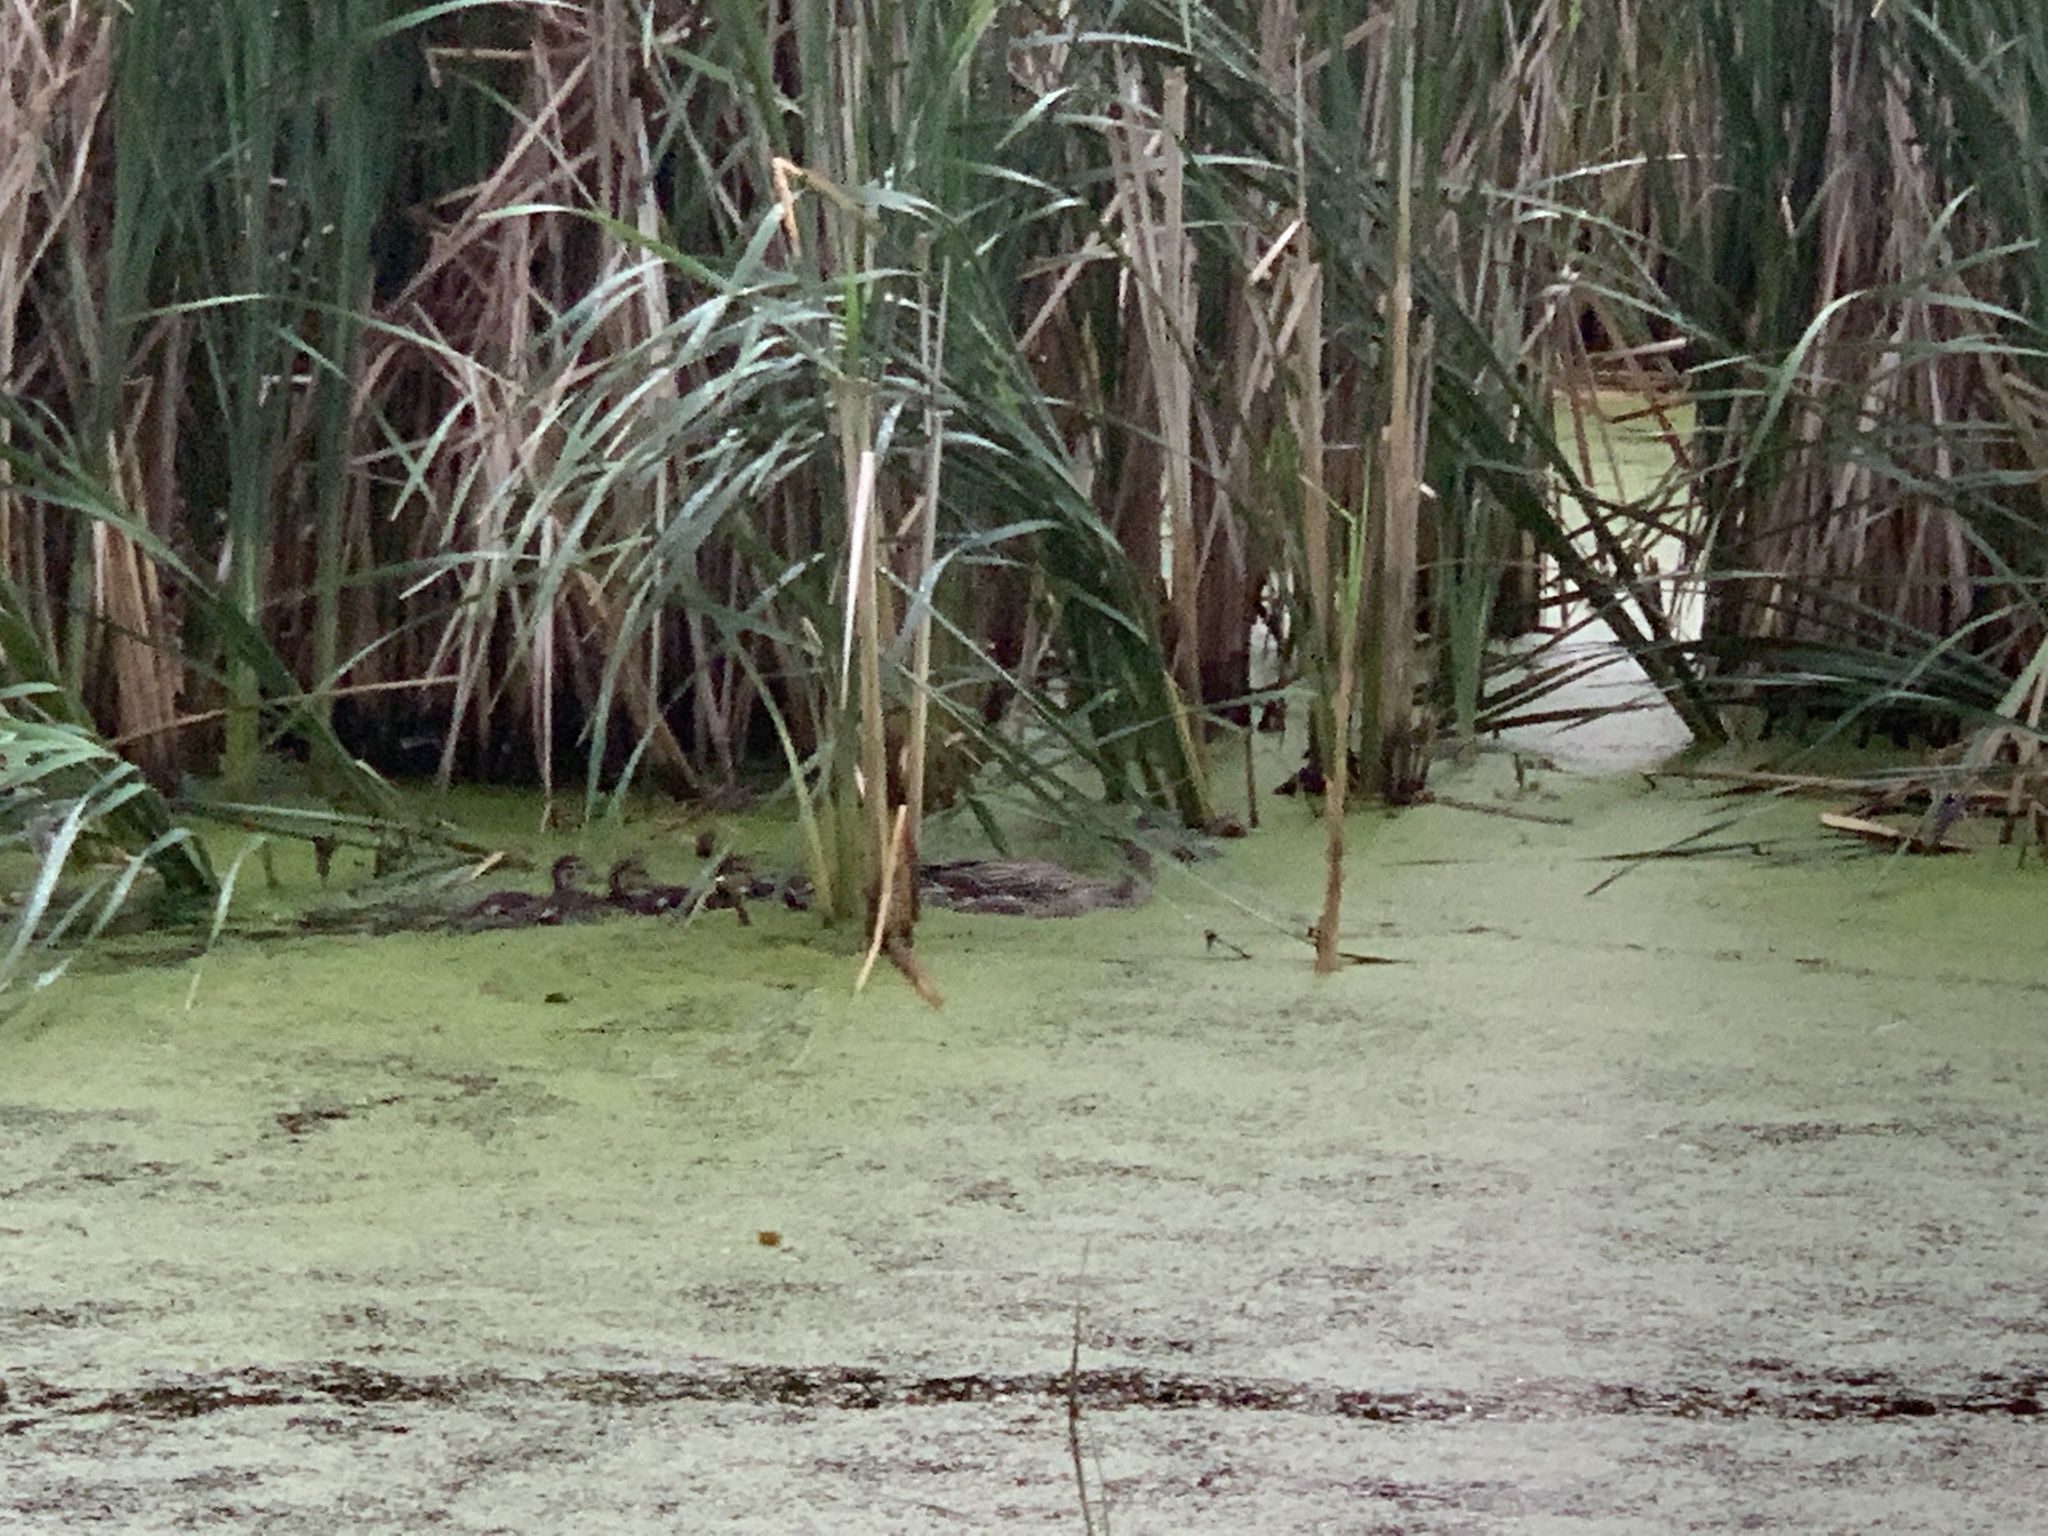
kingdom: Animalia
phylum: Chordata
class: Aves
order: Anseriformes
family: Anatidae
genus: Anas
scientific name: Anas platyrhynchos
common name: Mallard
